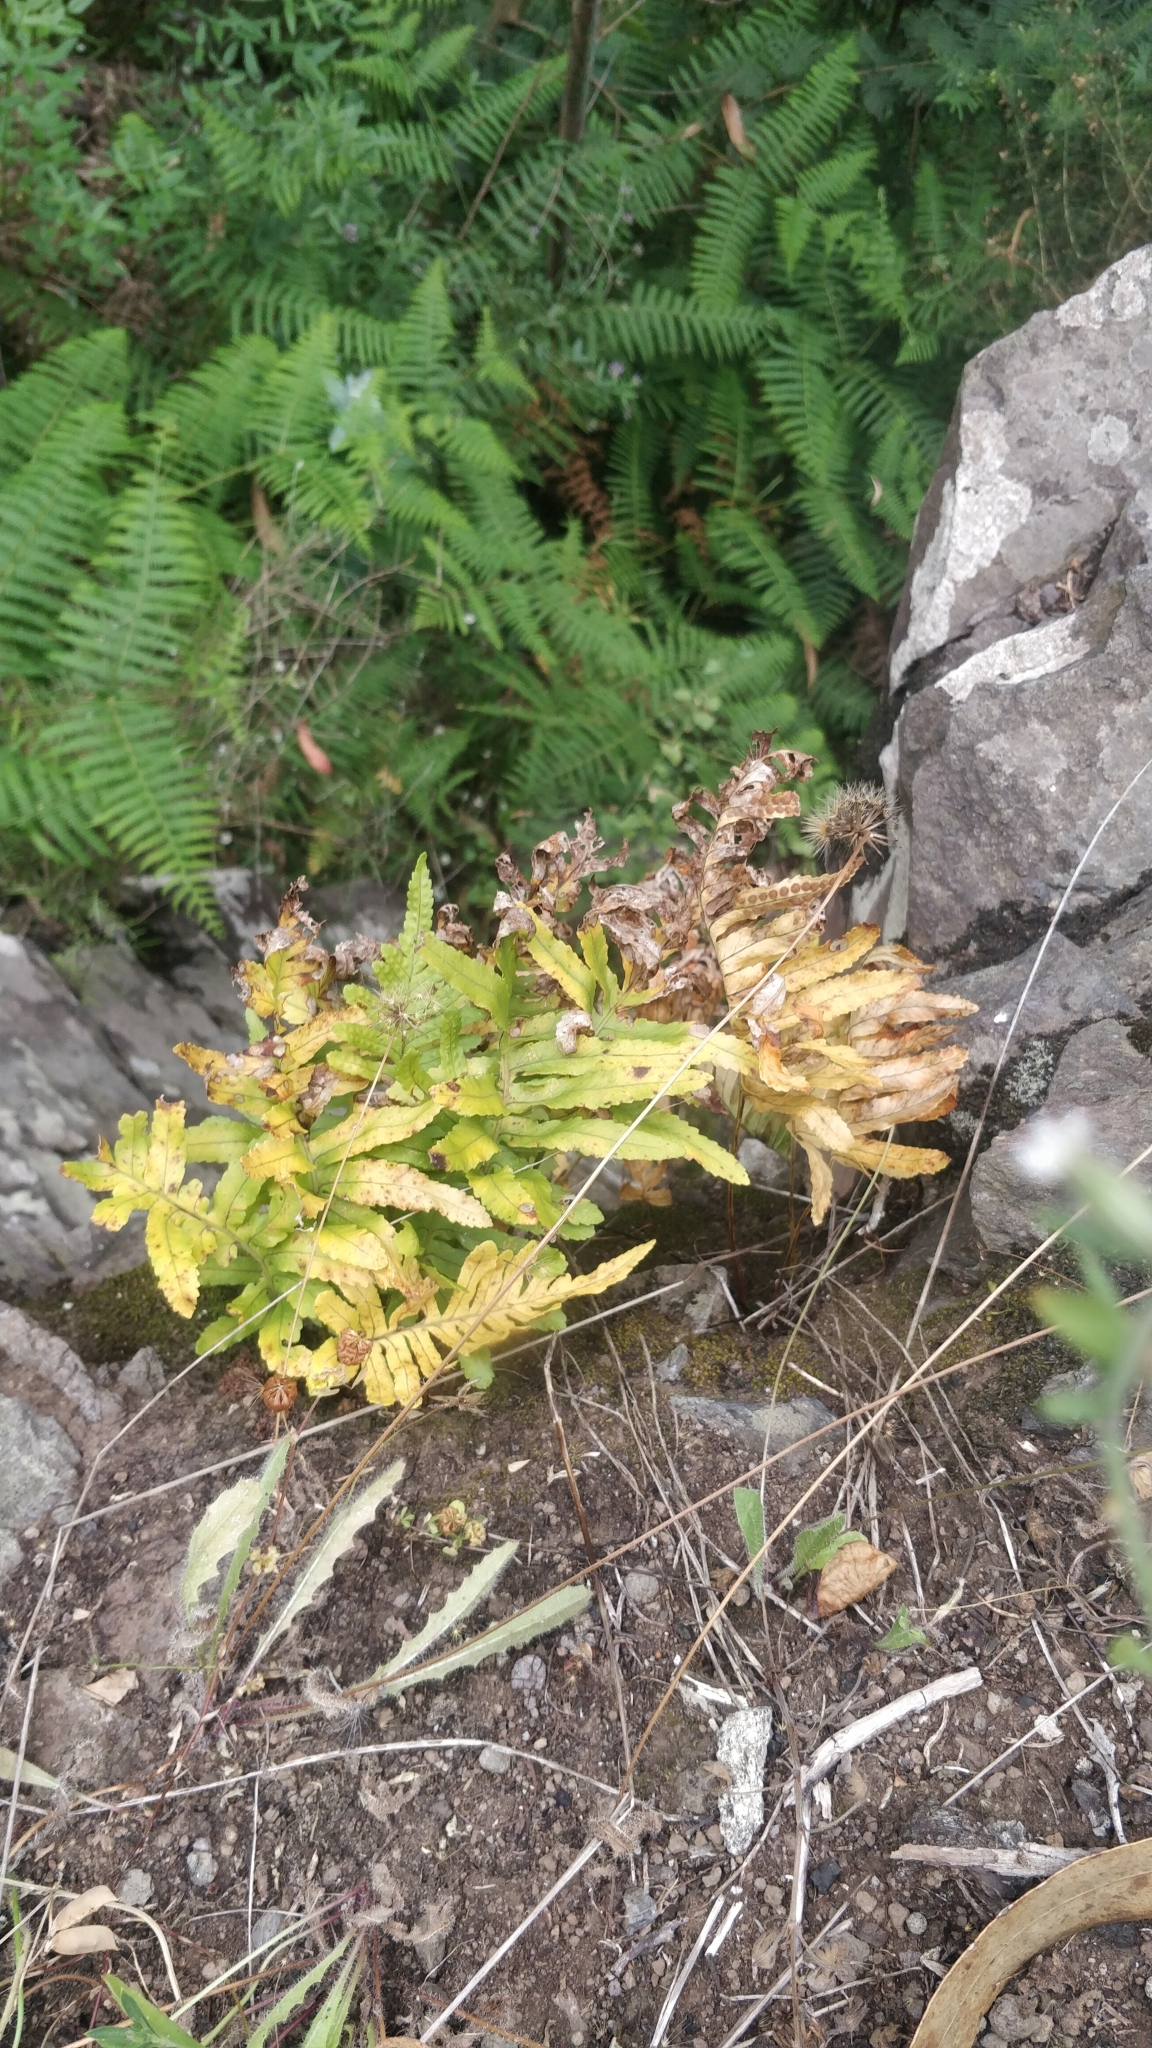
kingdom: Plantae
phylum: Tracheophyta
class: Polypodiopsida
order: Polypodiales
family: Polypodiaceae
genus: Polypodium
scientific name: Polypodium macaronesicum
